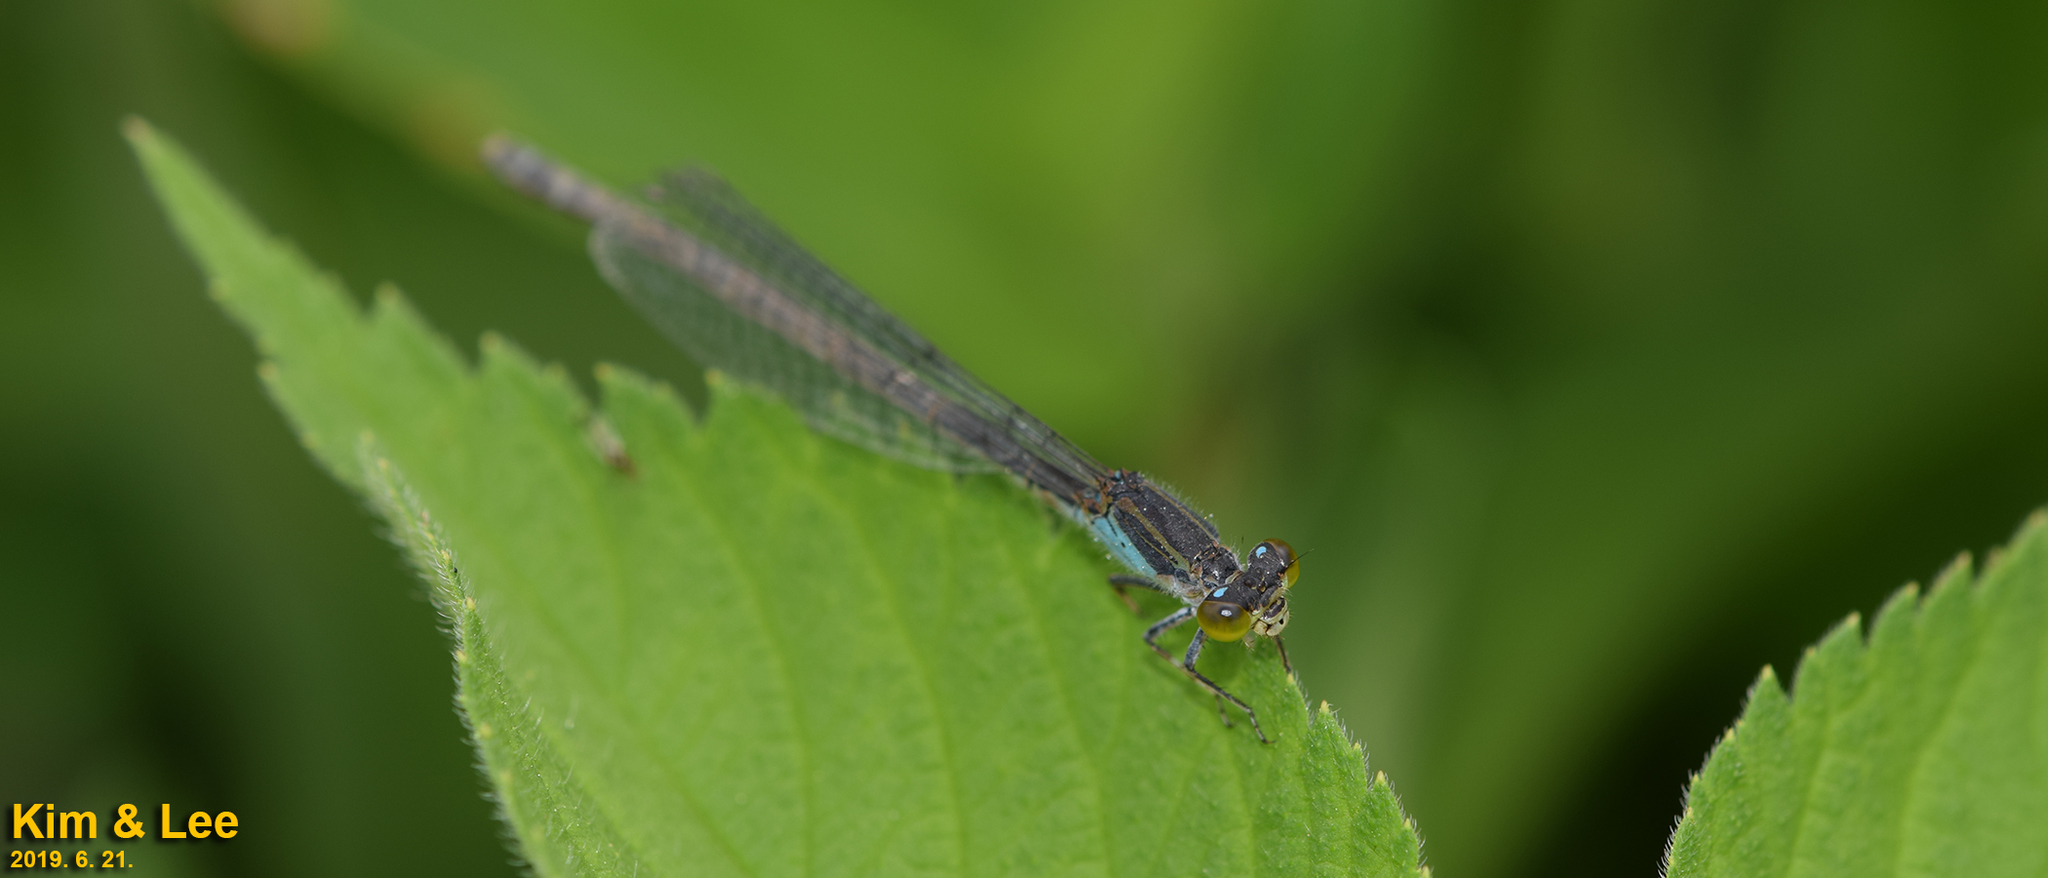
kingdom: Animalia
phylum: Arthropoda
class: Insecta
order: Odonata
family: Coenagrionidae
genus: Paracercion
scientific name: Paracercion calamorum
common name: Dusky lilysquatter
